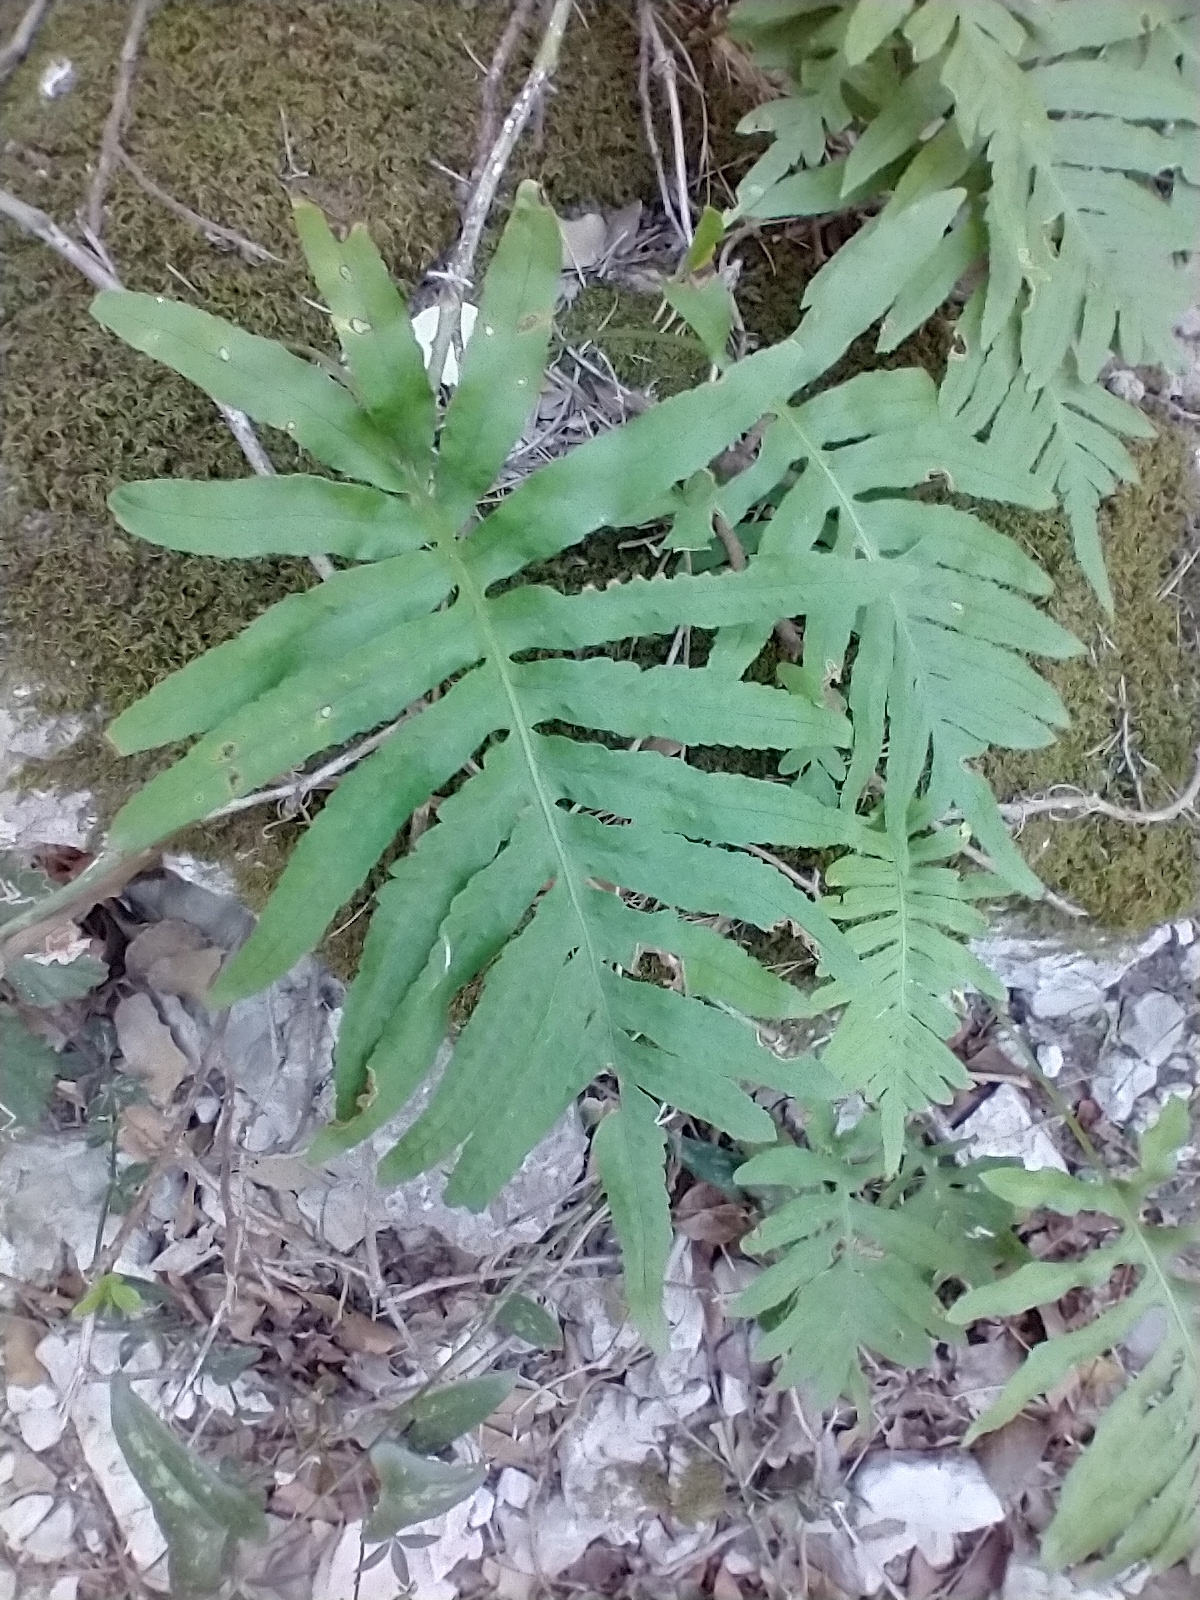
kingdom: Plantae
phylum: Tracheophyta
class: Polypodiopsida
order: Polypodiales
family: Polypodiaceae
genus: Polypodium
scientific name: Polypodium cambricum
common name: Southern polypody
